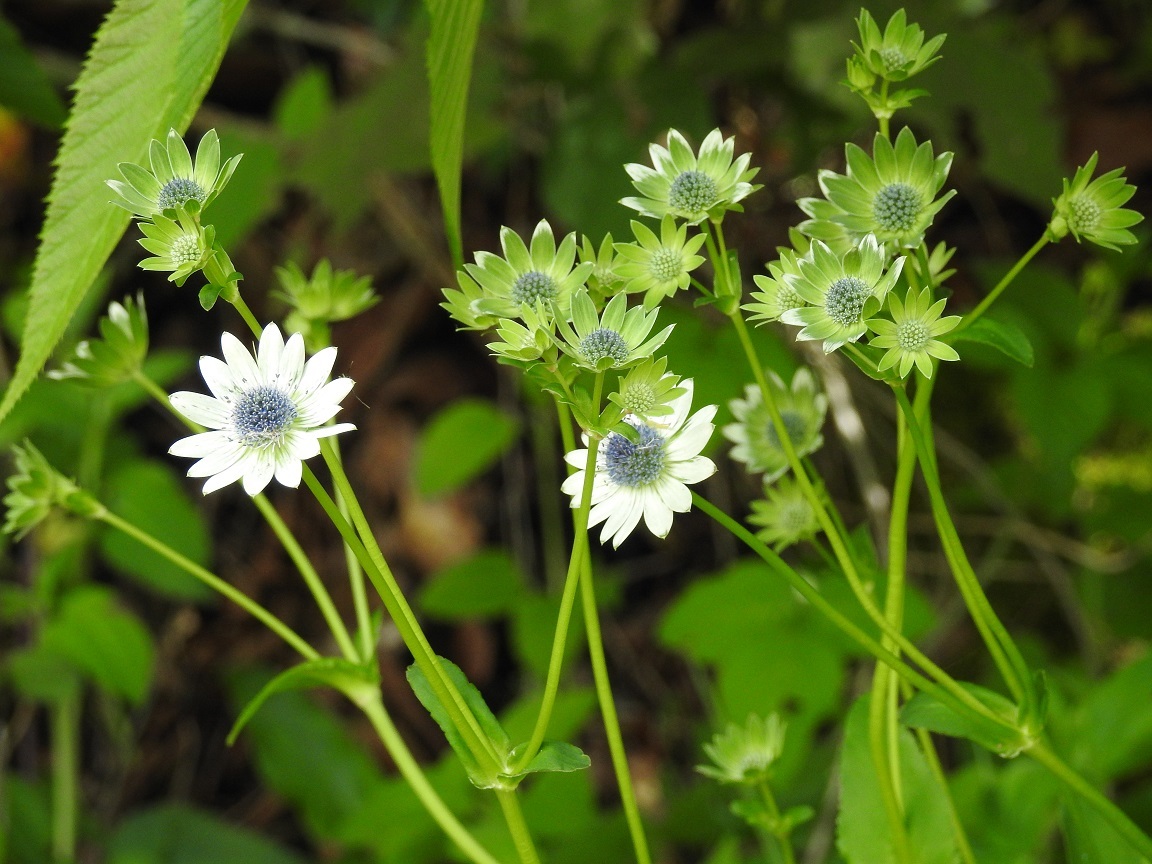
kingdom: Plantae
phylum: Tracheophyta
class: Magnoliopsida
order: Apiales
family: Apiaceae
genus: Eryngium
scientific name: Eryngium scaposum
